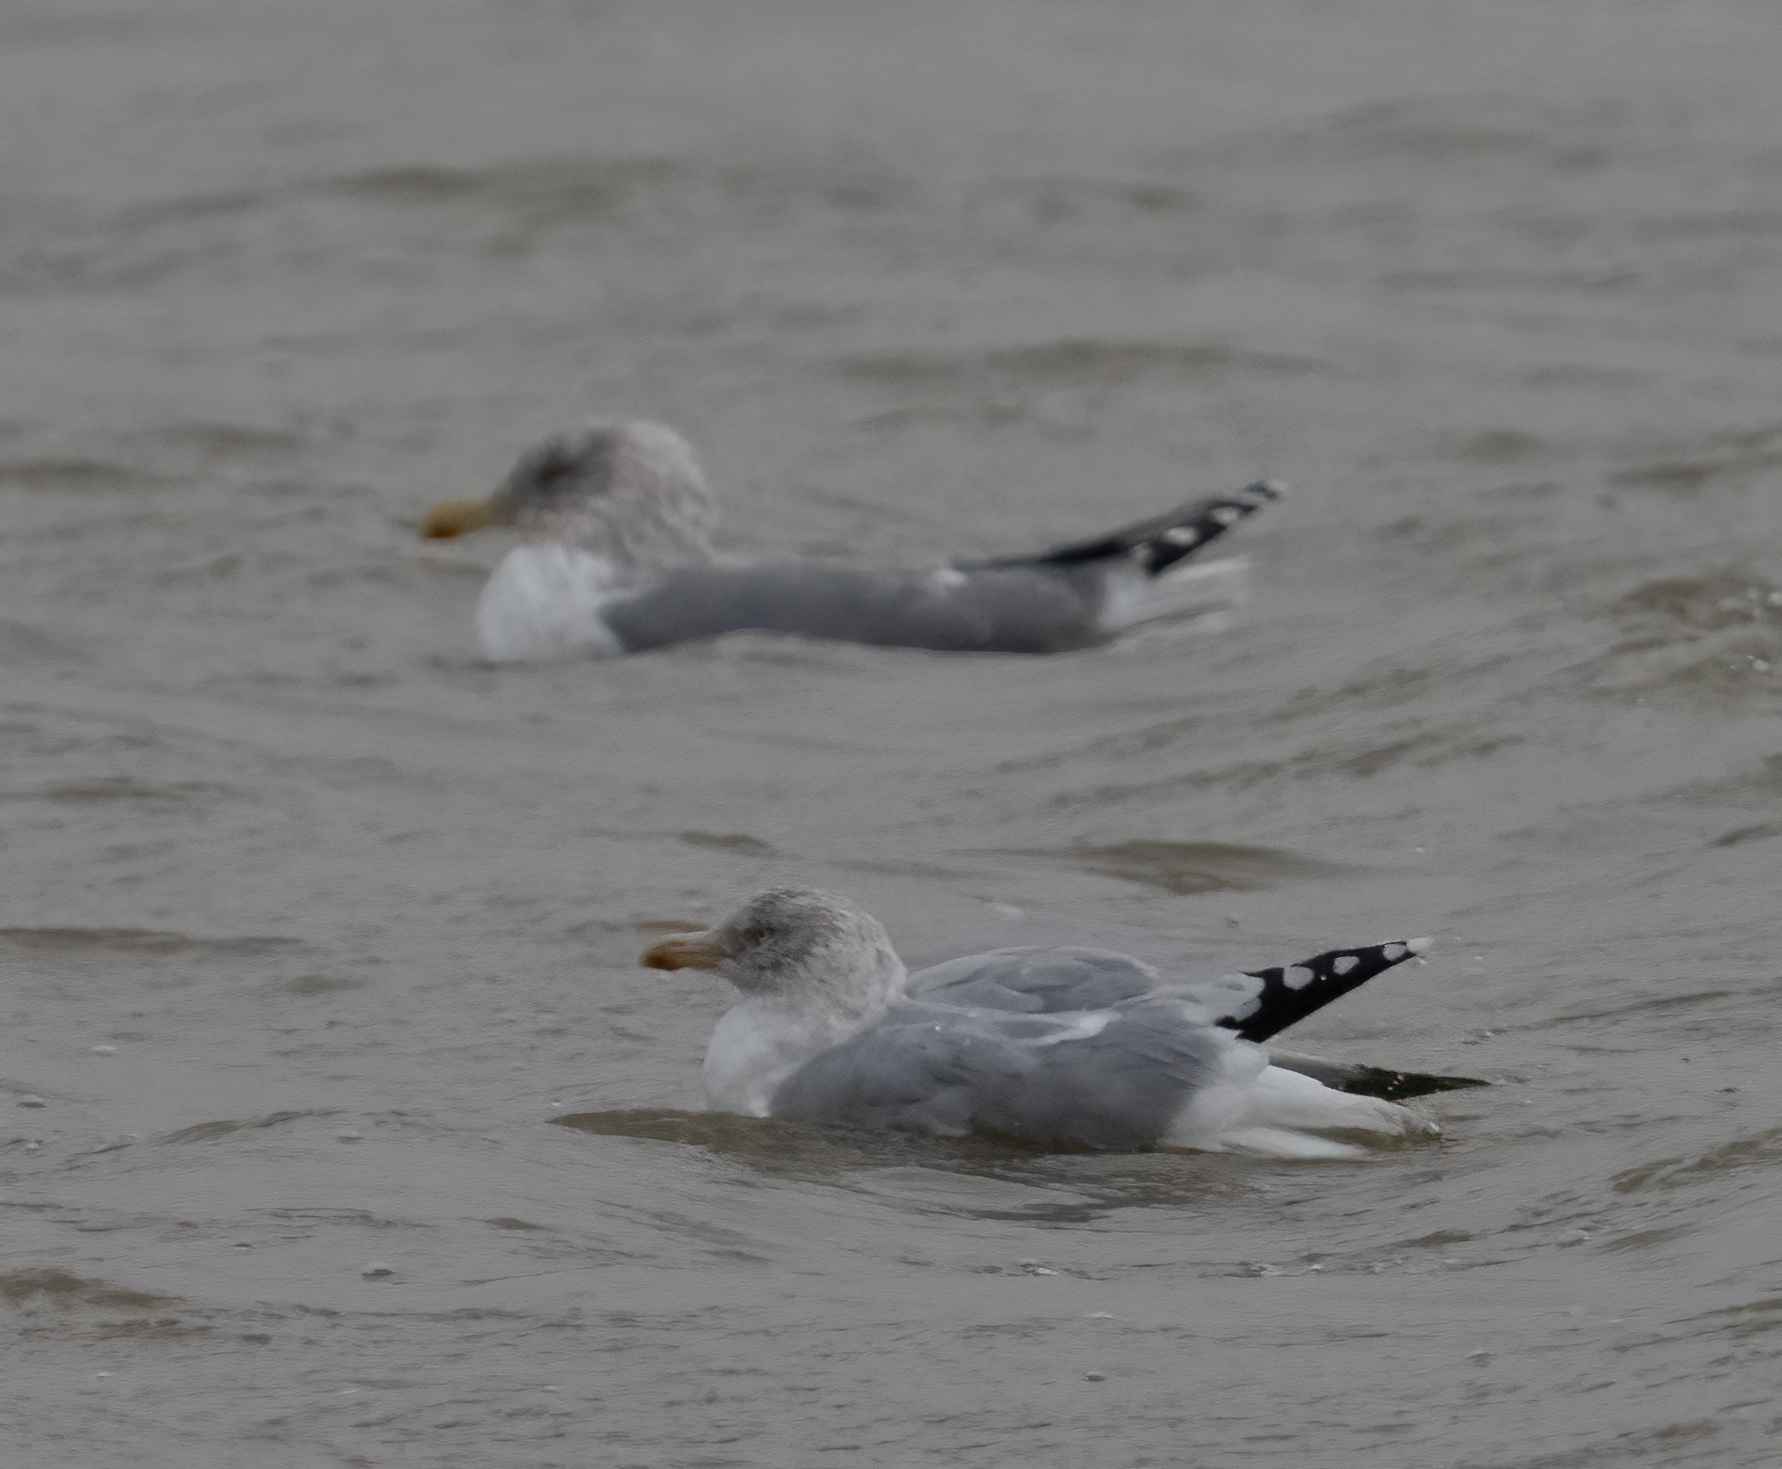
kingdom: Animalia
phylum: Chordata
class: Aves
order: Charadriiformes
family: Laridae
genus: Larus
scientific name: Larus argentatus
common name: Herring gull
